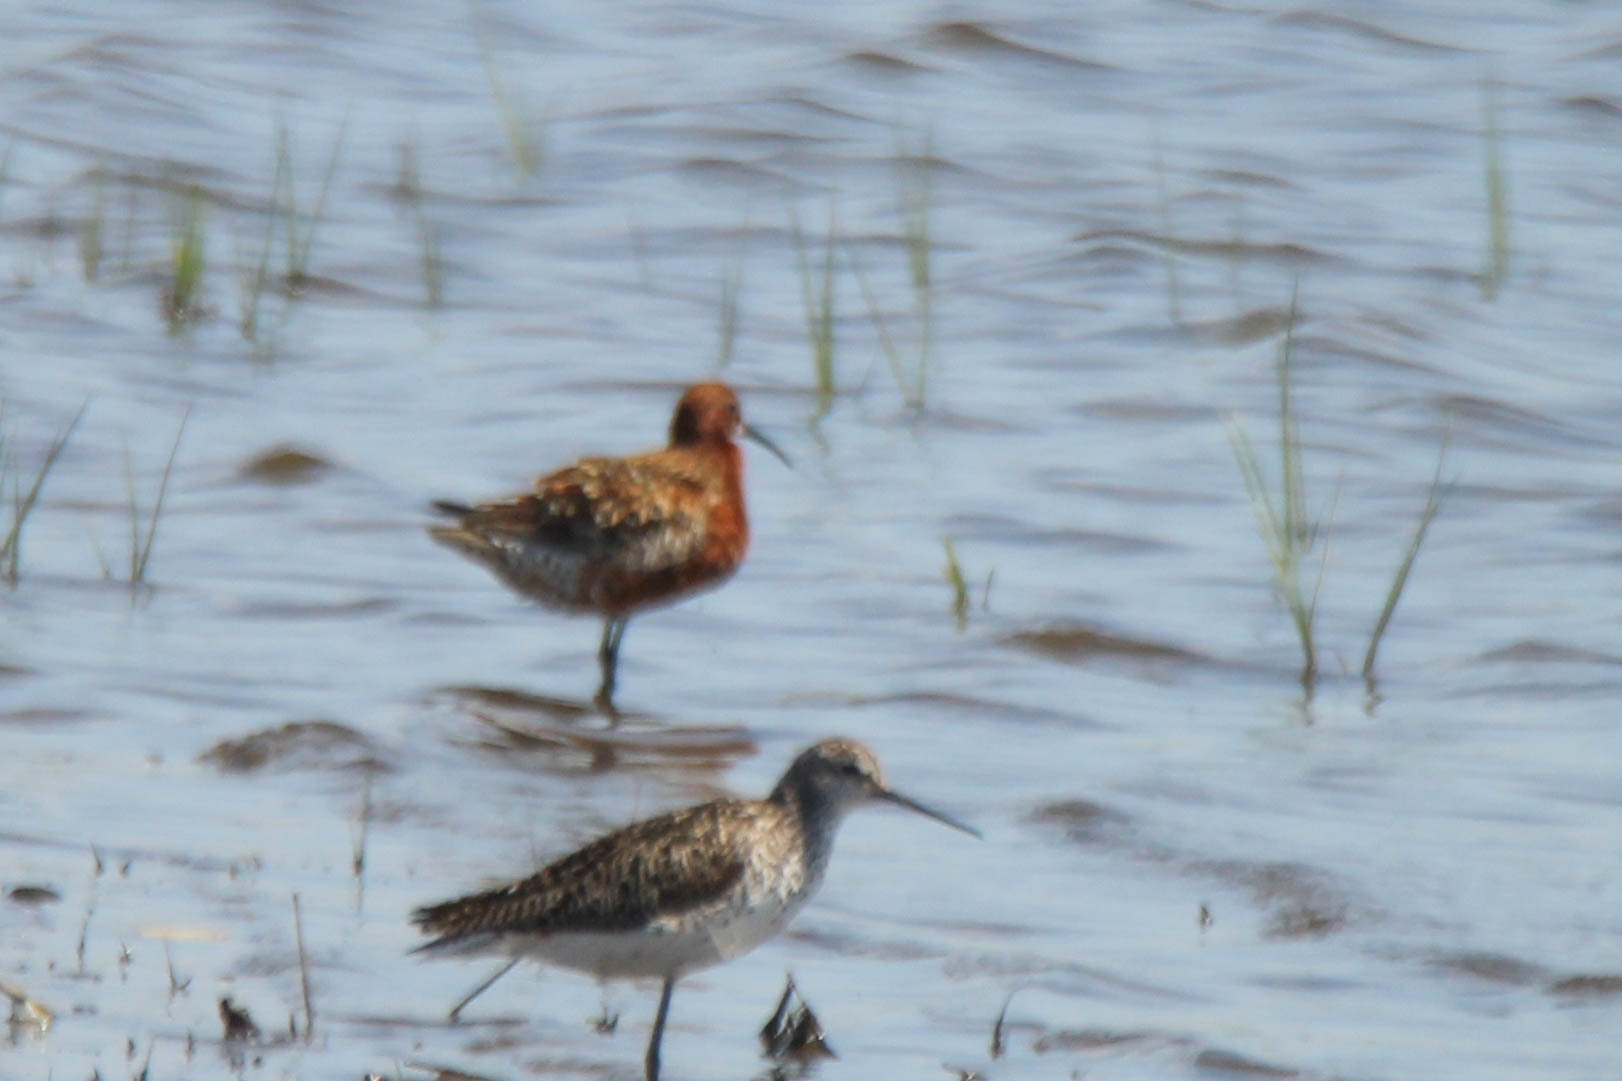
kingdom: Animalia
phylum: Chordata
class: Aves
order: Charadriiformes
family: Scolopacidae
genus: Calidris
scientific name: Calidris ferruginea
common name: Curlew sandpiper
